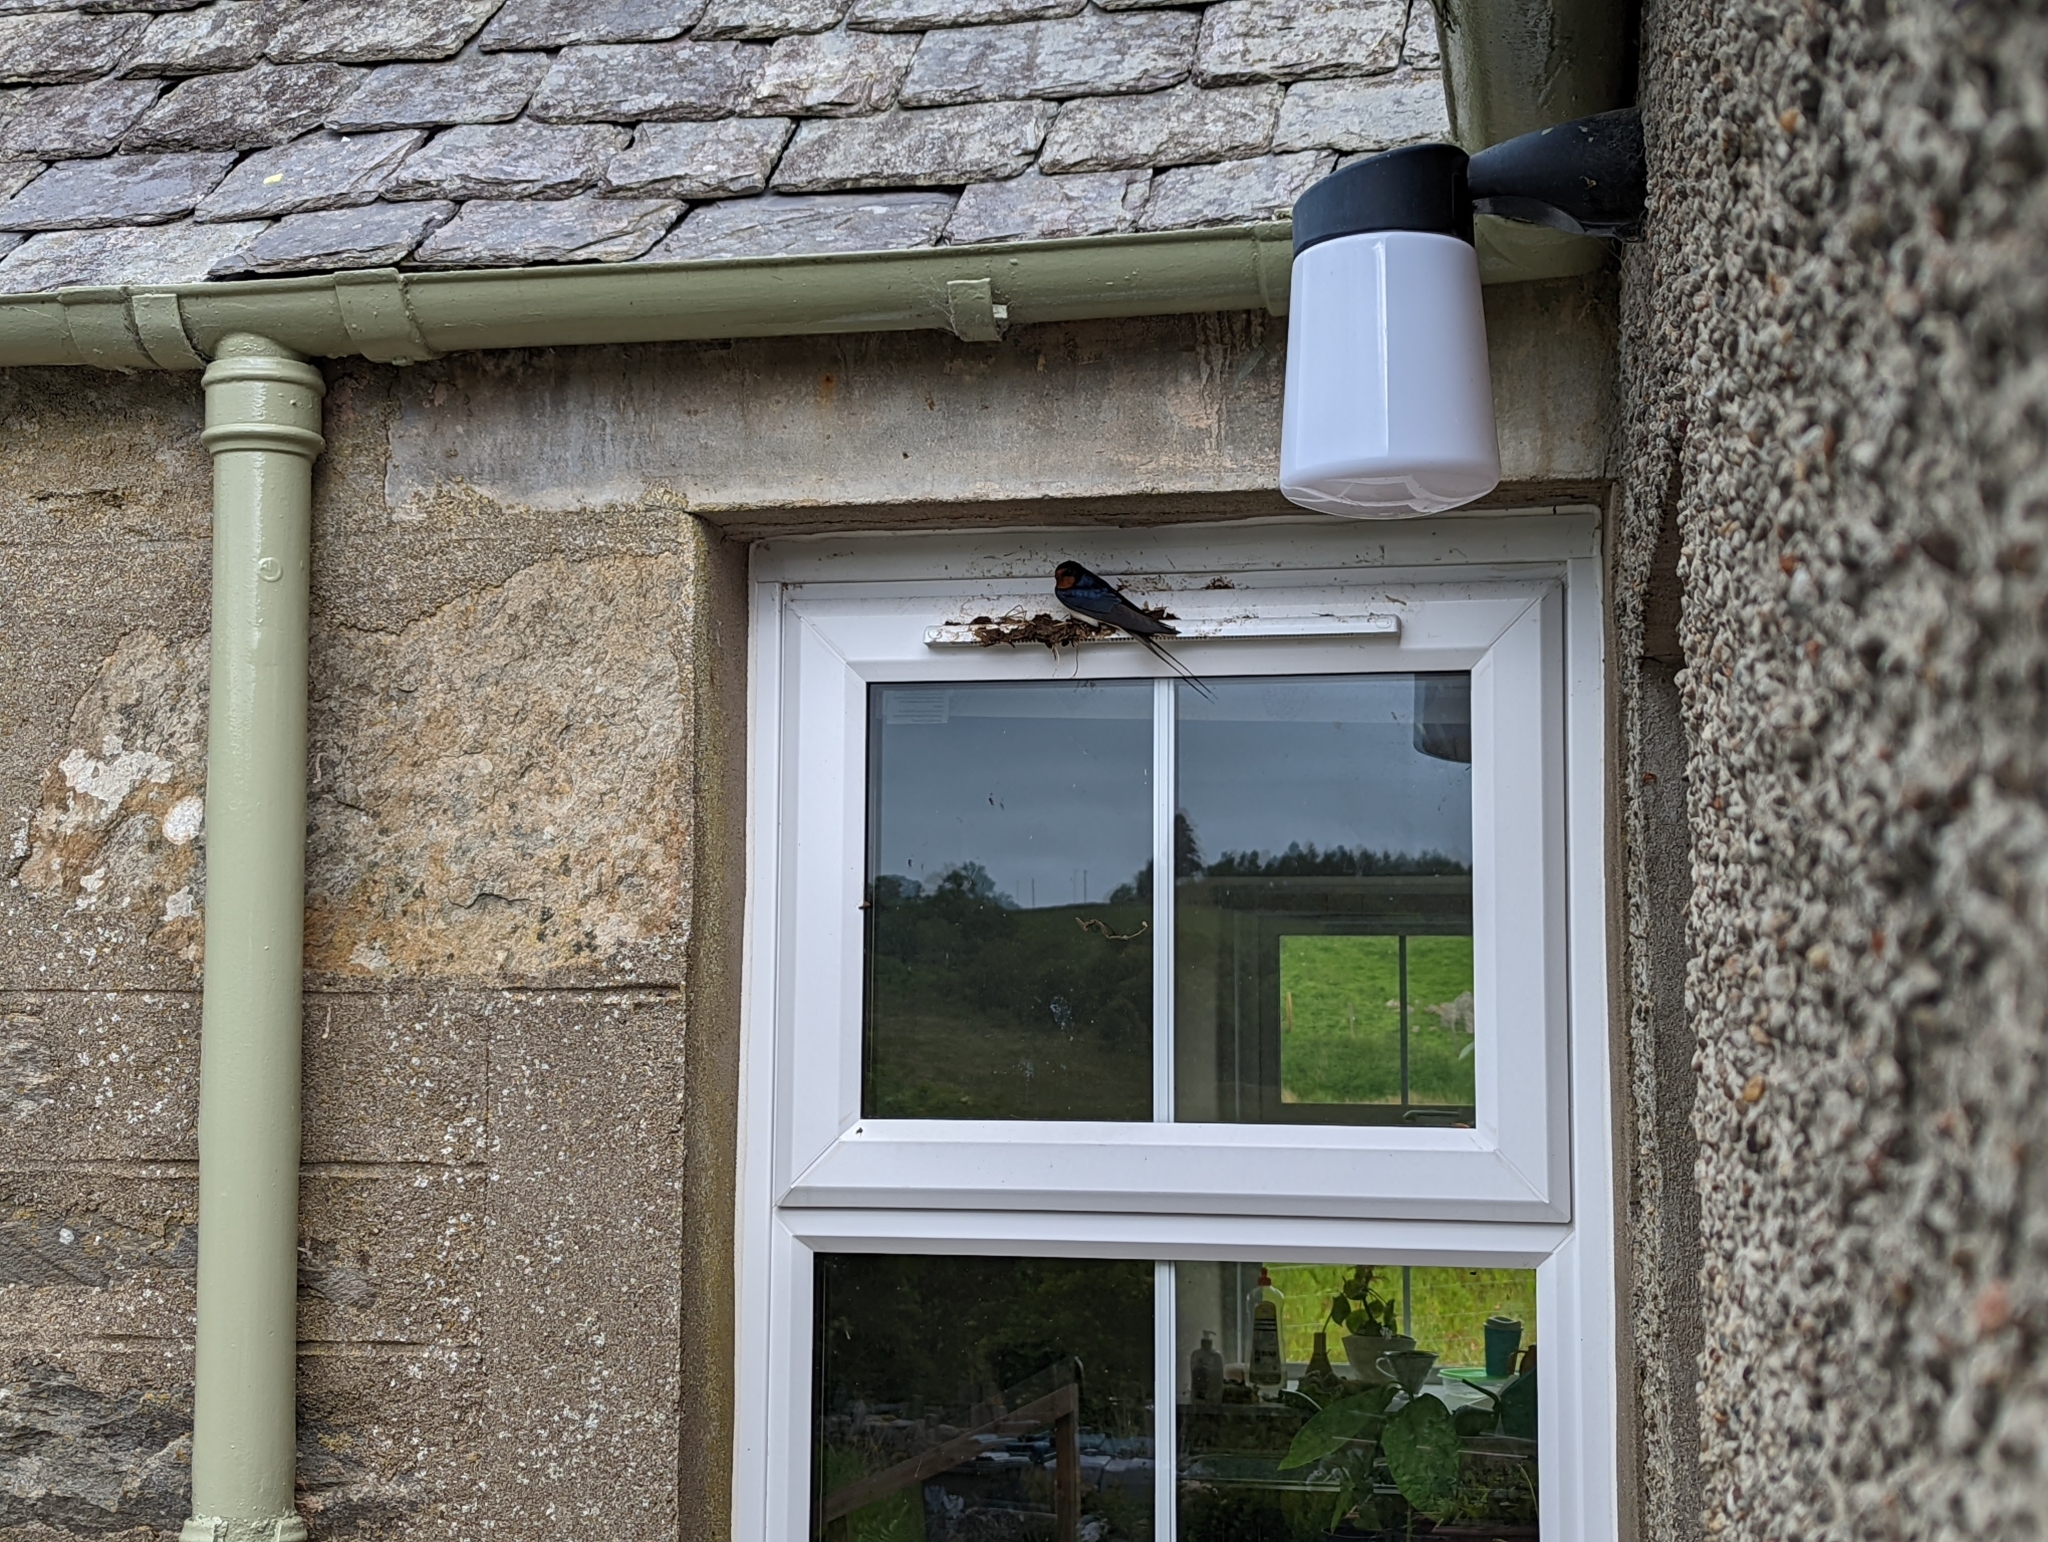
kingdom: Animalia
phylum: Chordata
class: Aves
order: Passeriformes
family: Hirundinidae
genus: Hirundo
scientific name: Hirundo rustica
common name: Barn swallow
